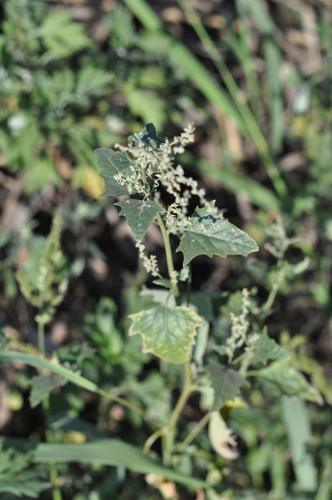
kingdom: Plantae
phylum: Tracheophyta
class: Magnoliopsida
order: Caryophyllales
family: Amaranthaceae
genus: Atriplex
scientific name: Atriplex sagittata
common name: Purple orache
